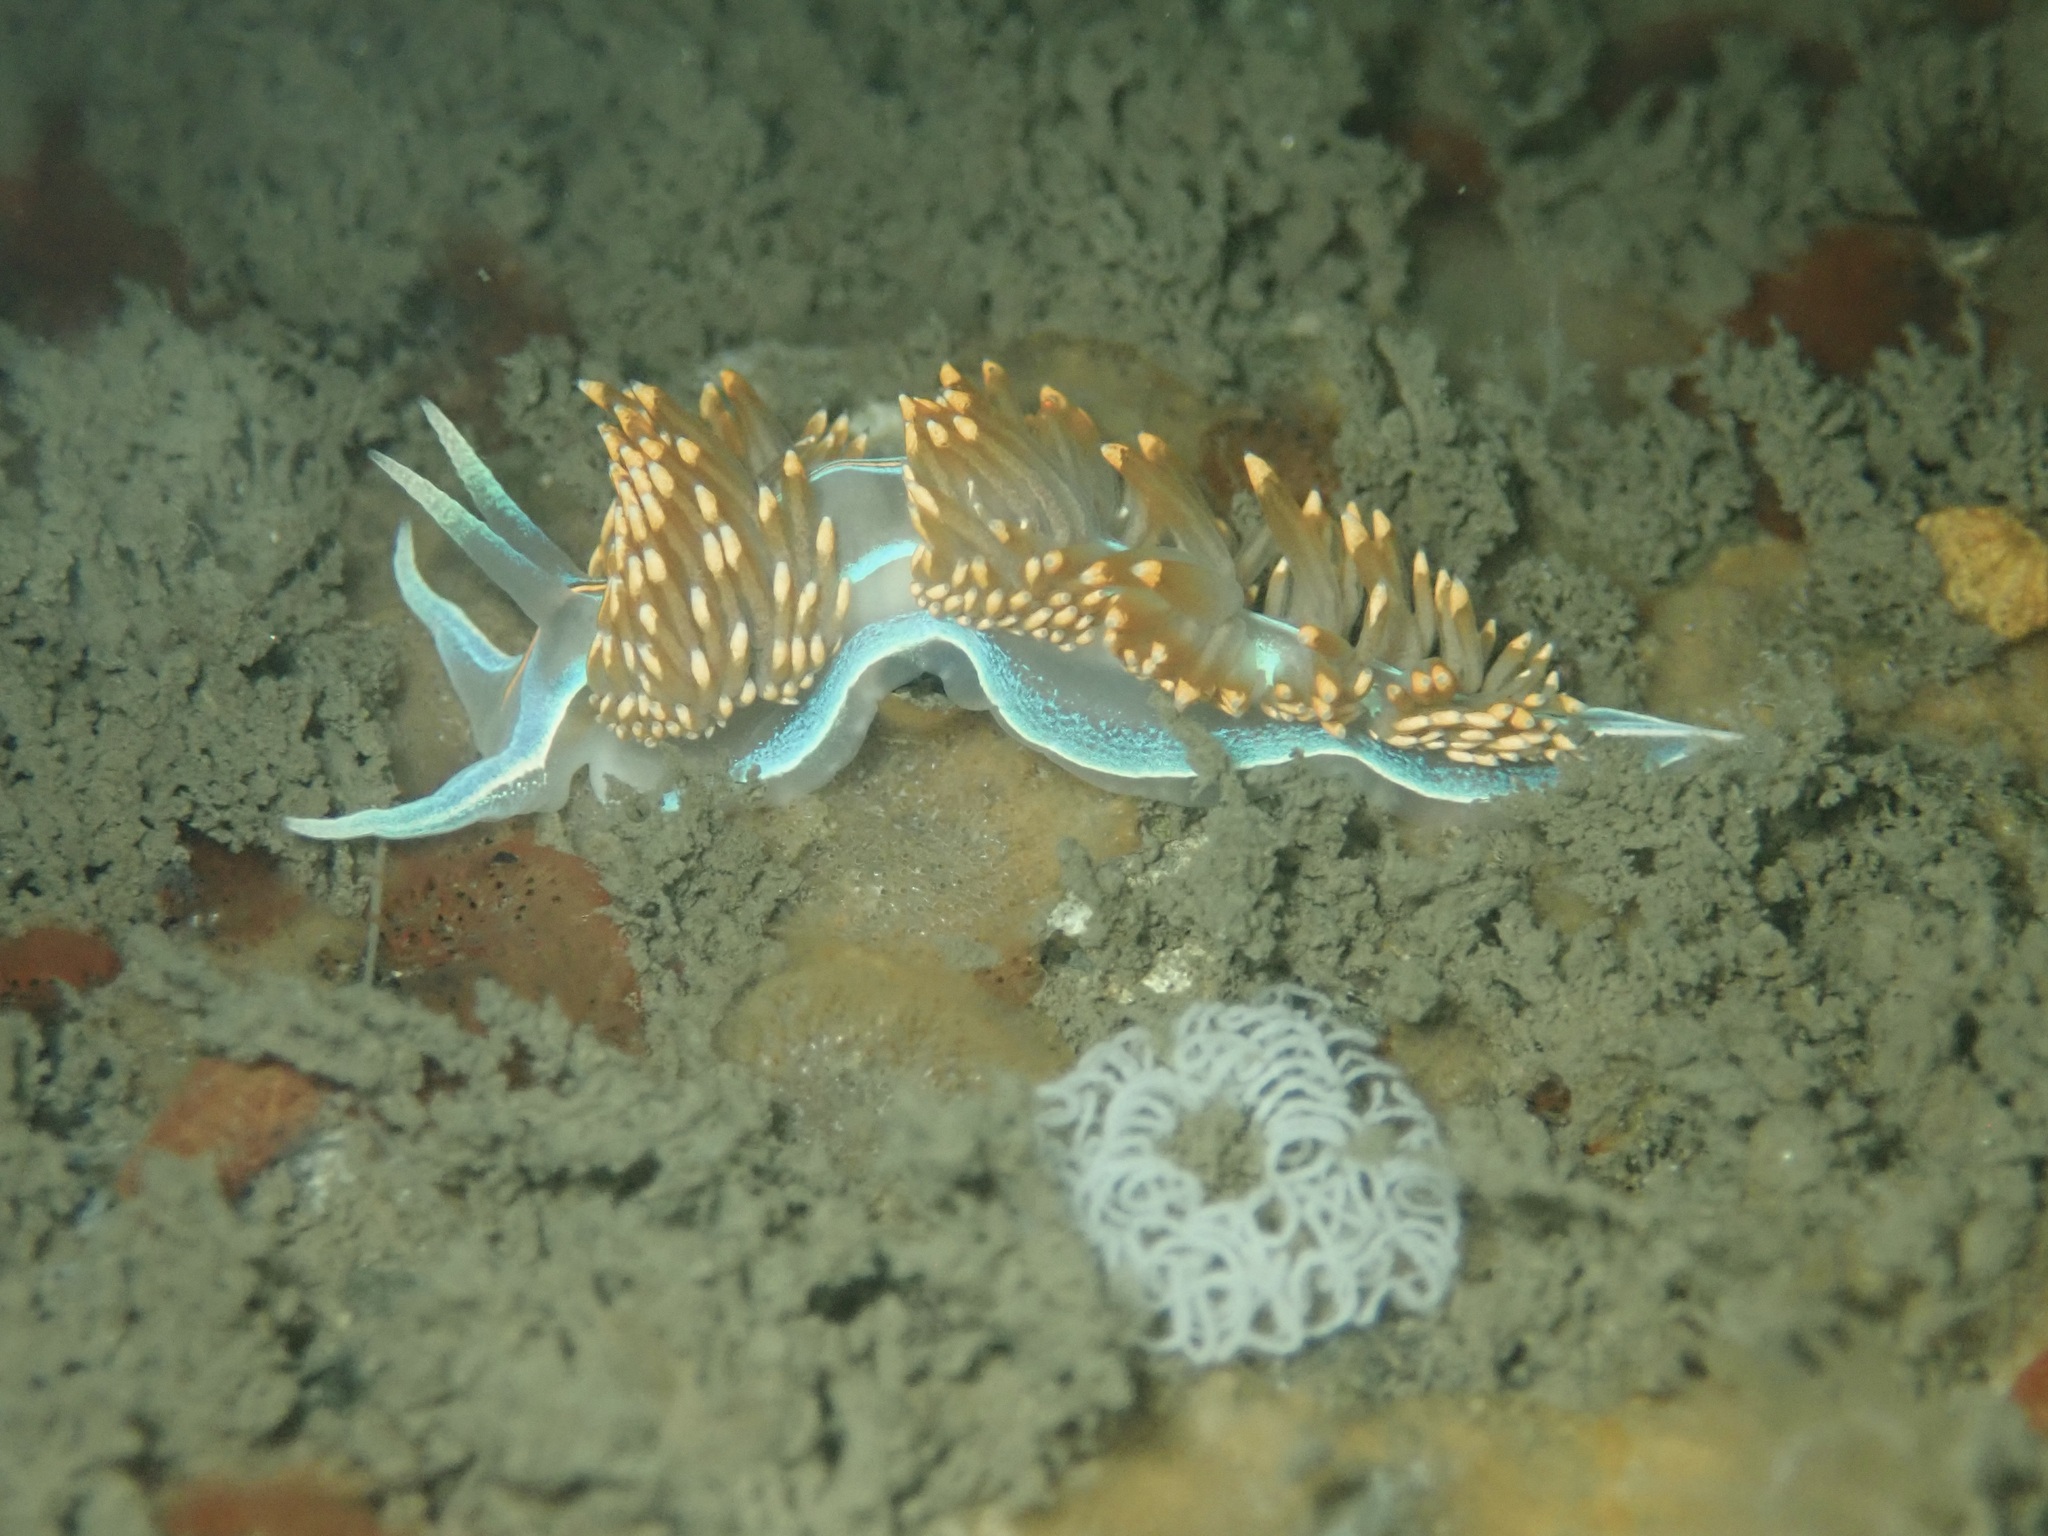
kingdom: Animalia
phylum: Mollusca
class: Gastropoda
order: Nudibranchia
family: Myrrhinidae
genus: Hermissenda
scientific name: Hermissenda opalescens
